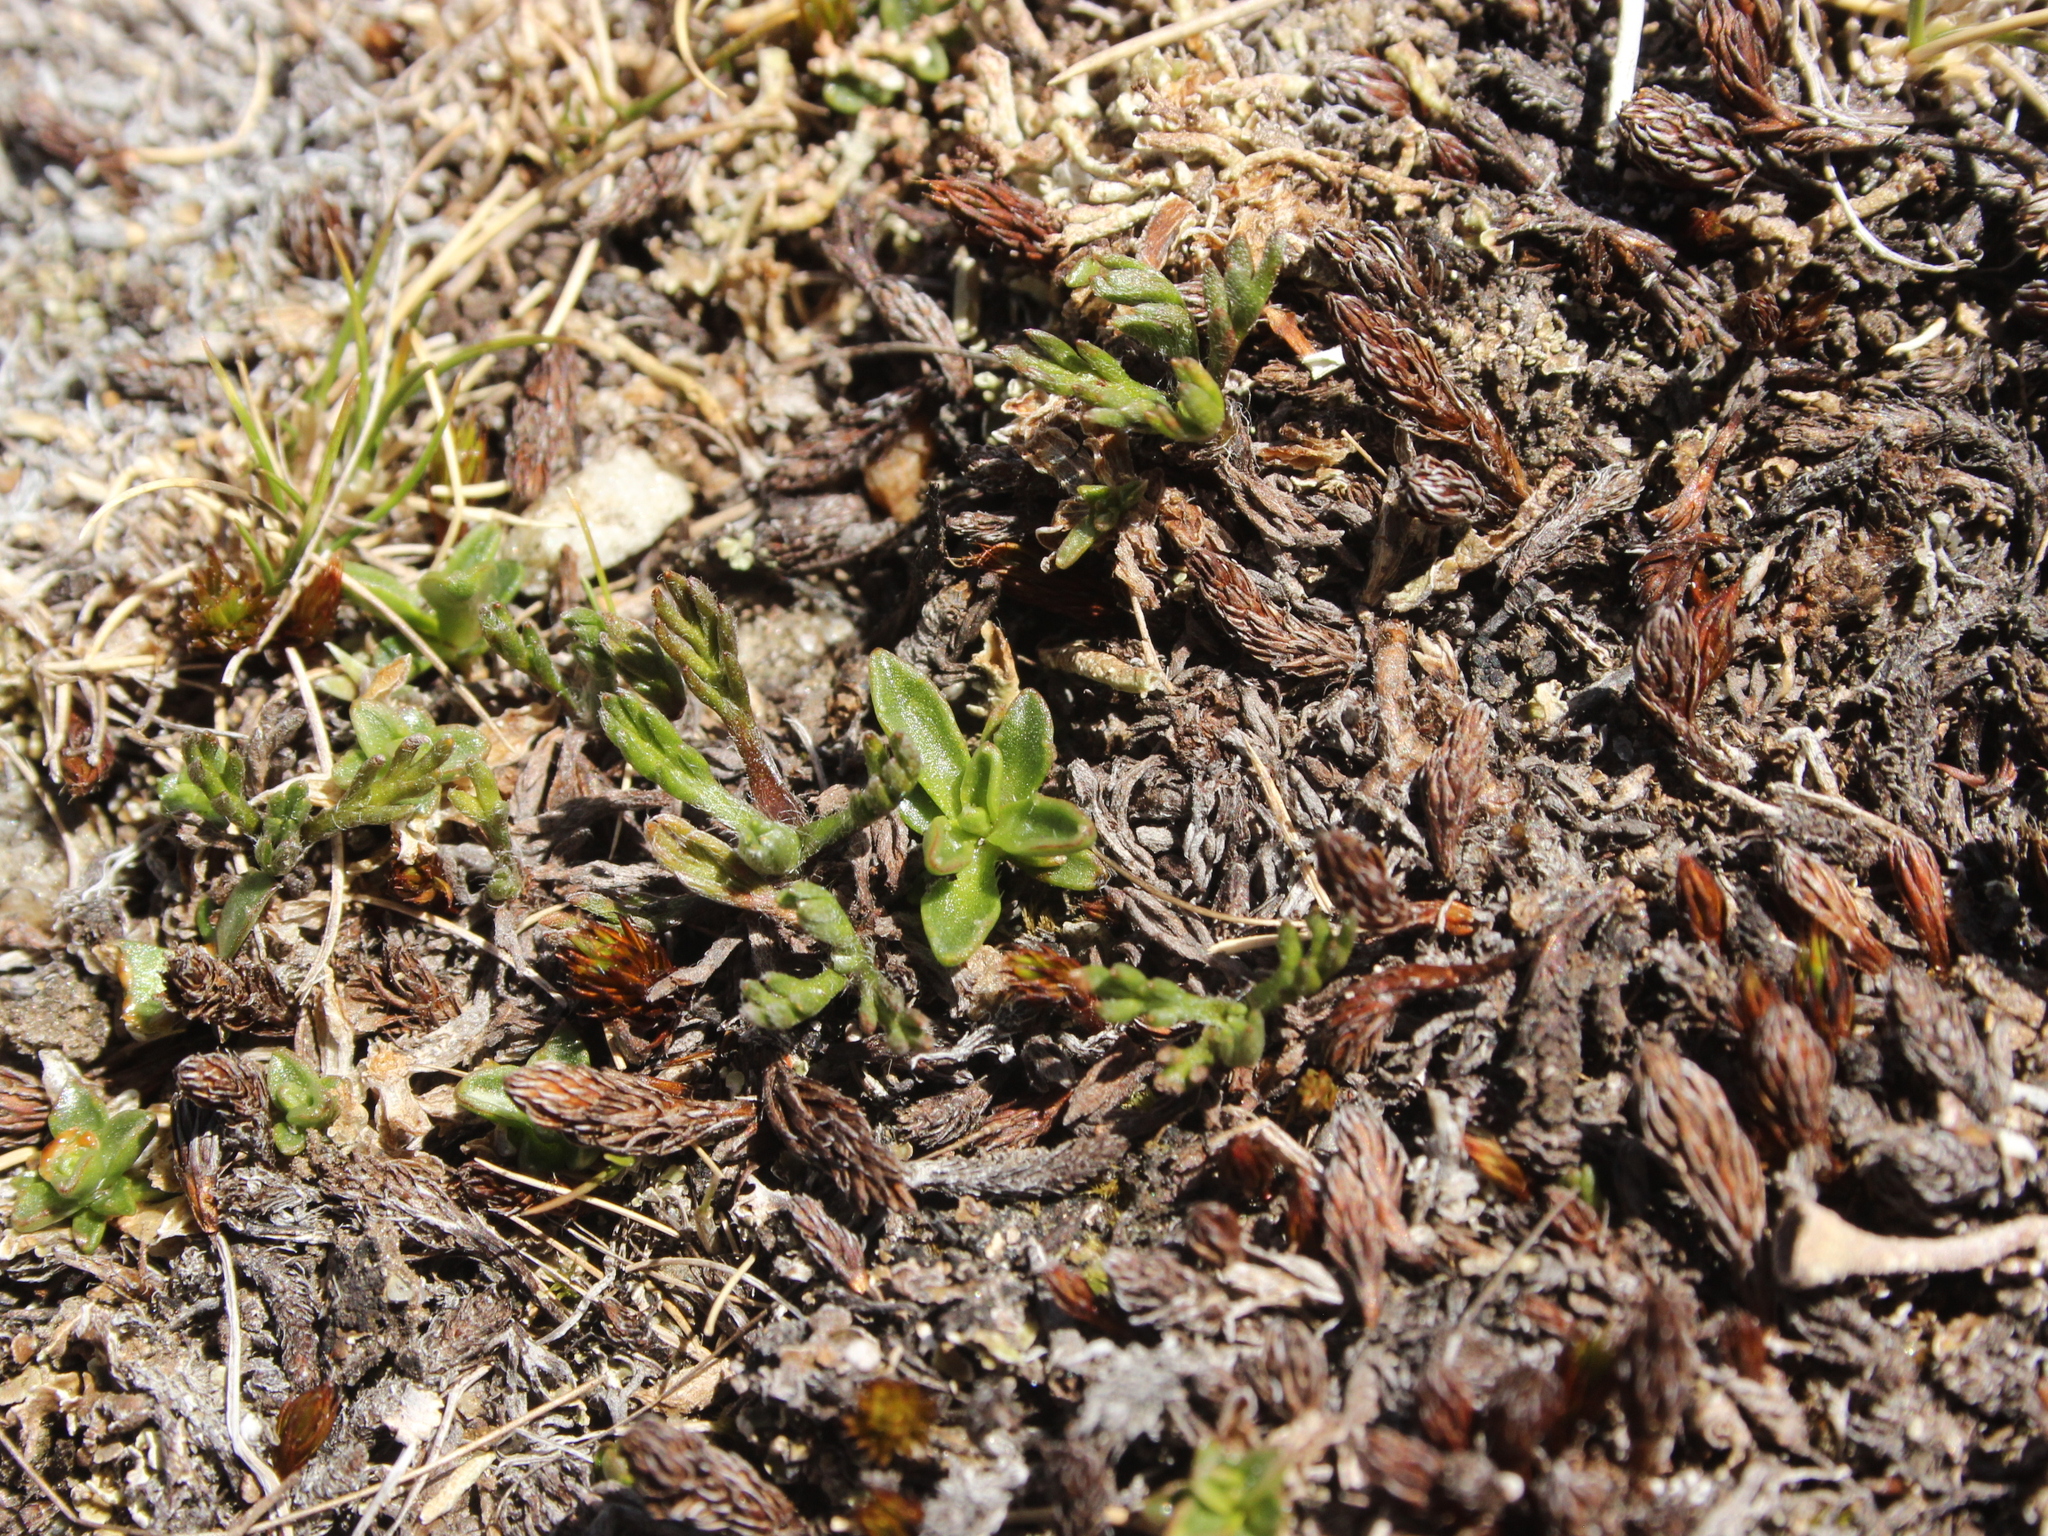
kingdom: Plantae
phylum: Tracheophyta
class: Magnoliopsida
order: Asterales
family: Campanulaceae
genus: Wahlenbergia
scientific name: Wahlenbergia albomarginata
